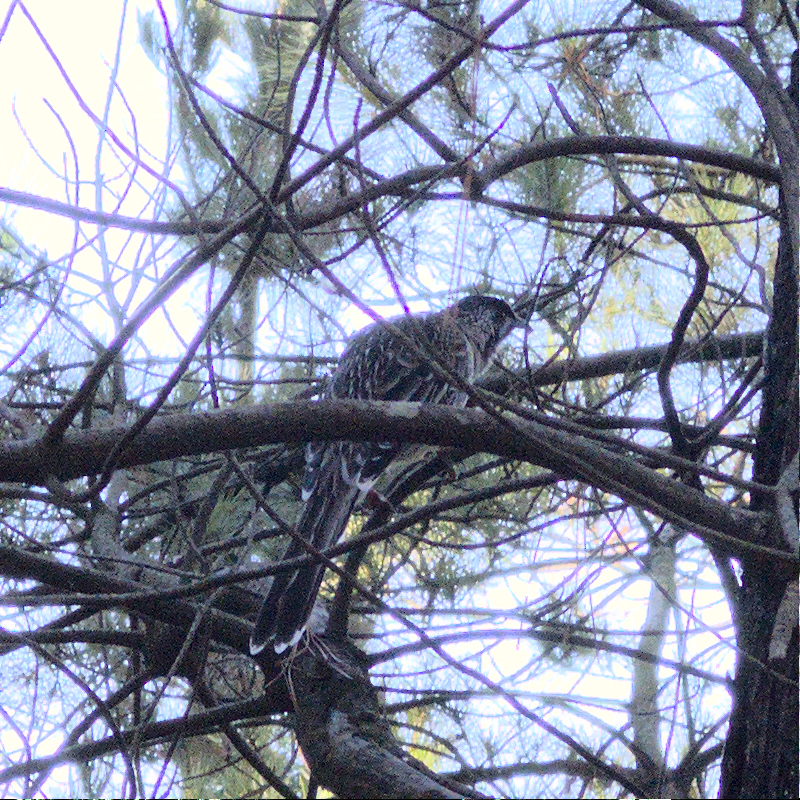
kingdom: Animalia
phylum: Chordata
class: Aves
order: Passeriformes
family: Meliphagidae
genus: Anthochaera
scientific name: Anthochaera carunculata
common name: Red wattlebird
